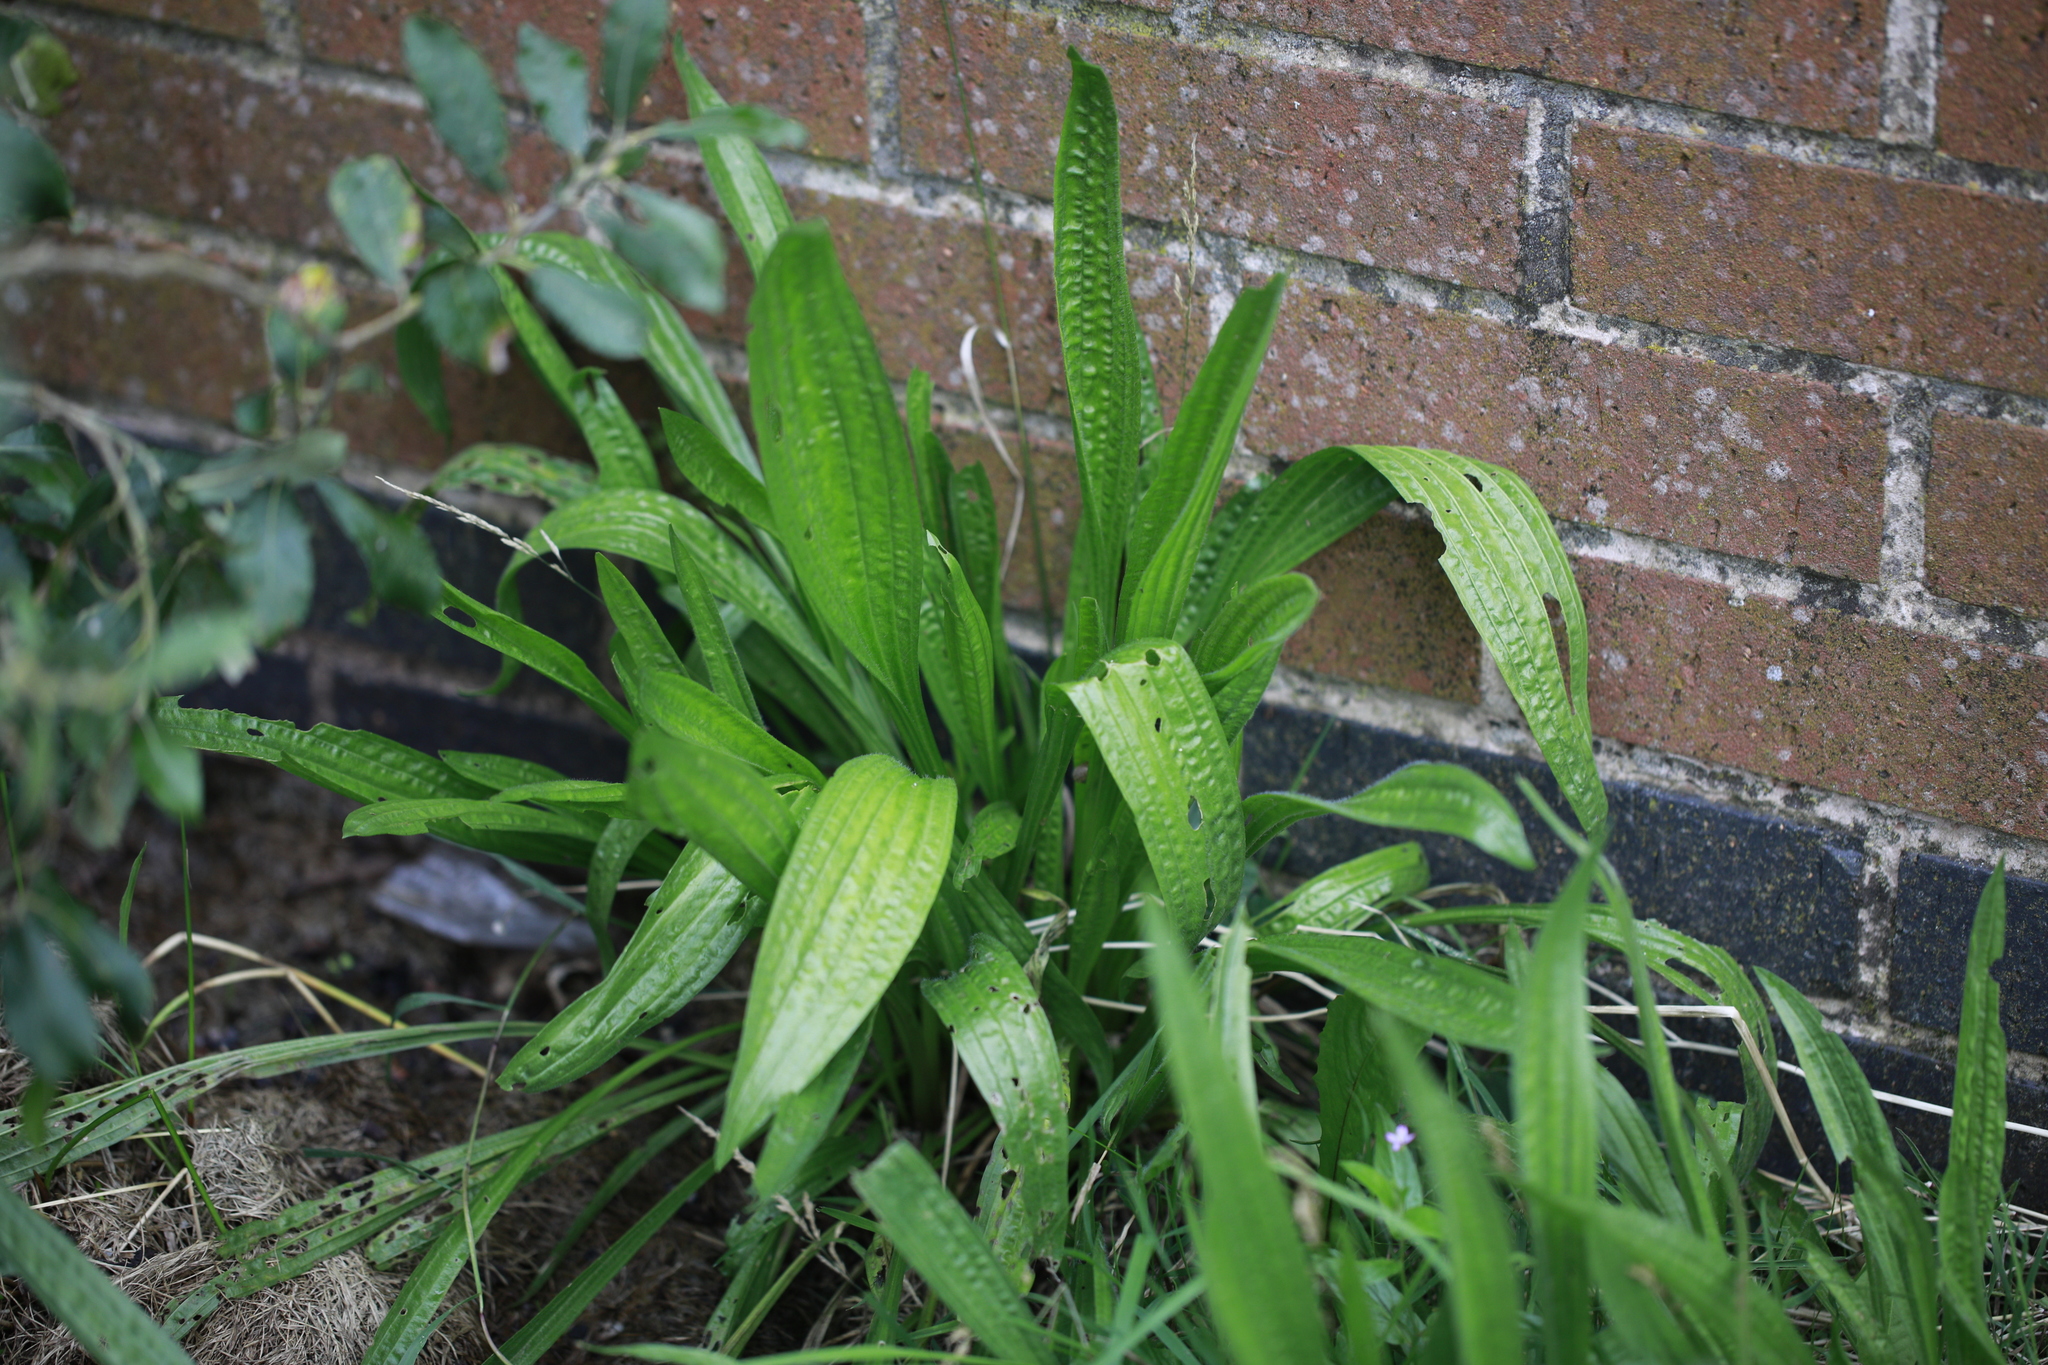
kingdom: Plantae
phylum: Tracheophyta
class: Magnoliopsida
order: Lamiales
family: Plantaginaceae
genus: Plantago
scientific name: Plantago lanceolata
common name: Ribwort plantain
